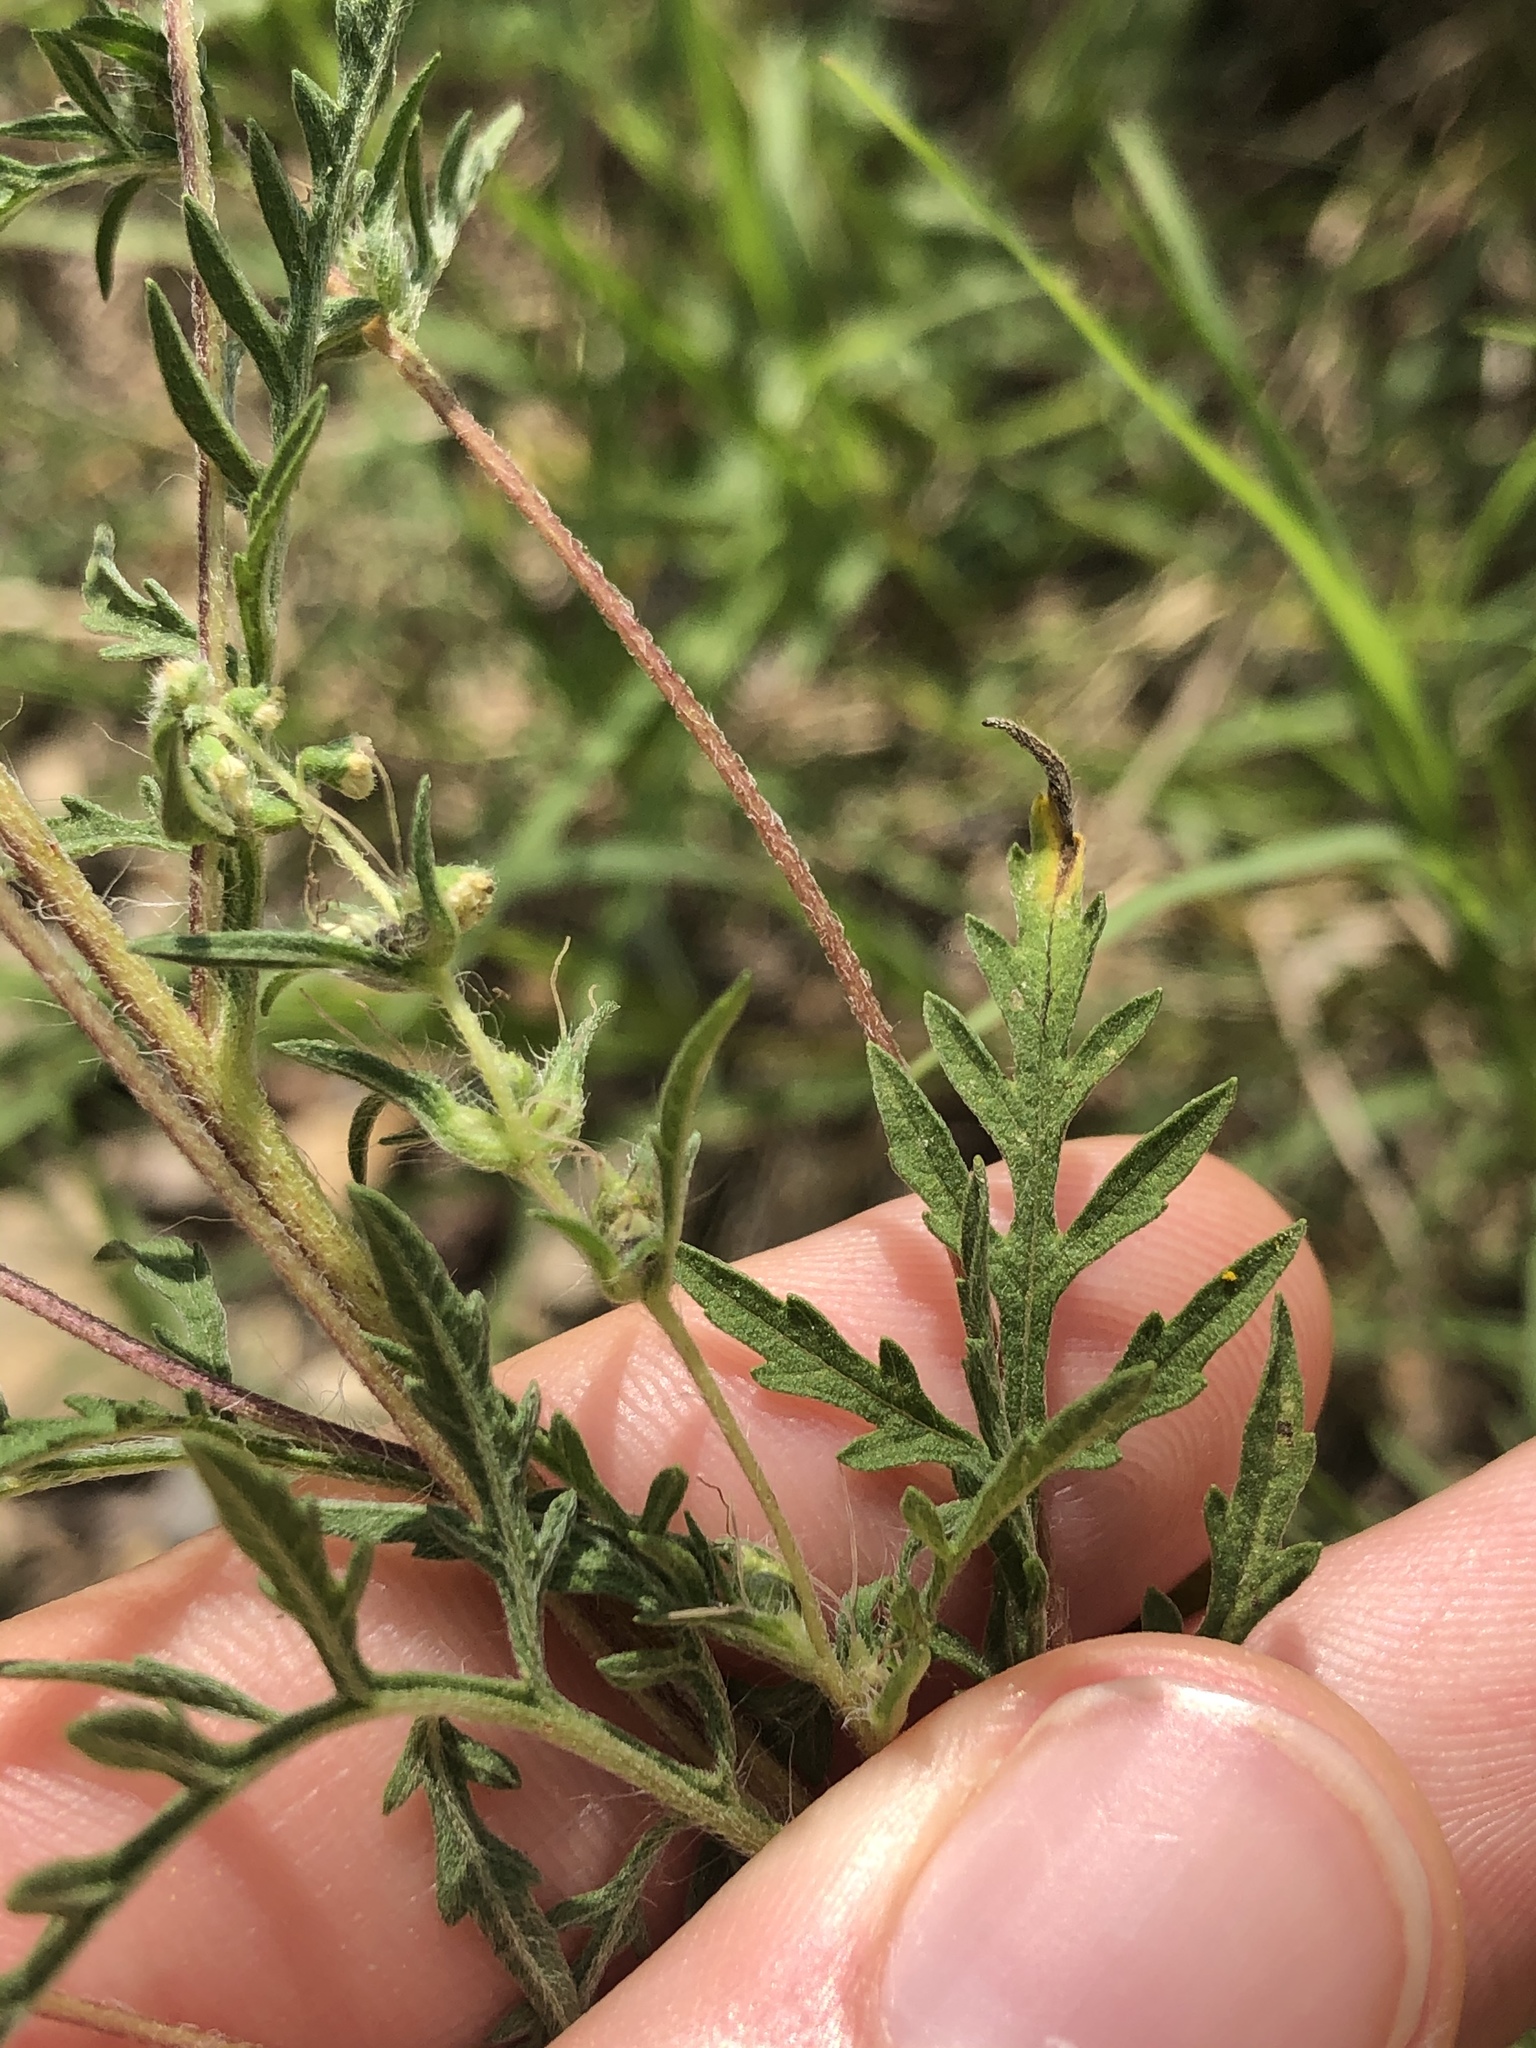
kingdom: Plantae
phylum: Tracheophyta
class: Magnoliopsida
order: Asterales
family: Asteraceae
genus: Ambrosia
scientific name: Ambrosia psilostachya
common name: Perennial ragweed
